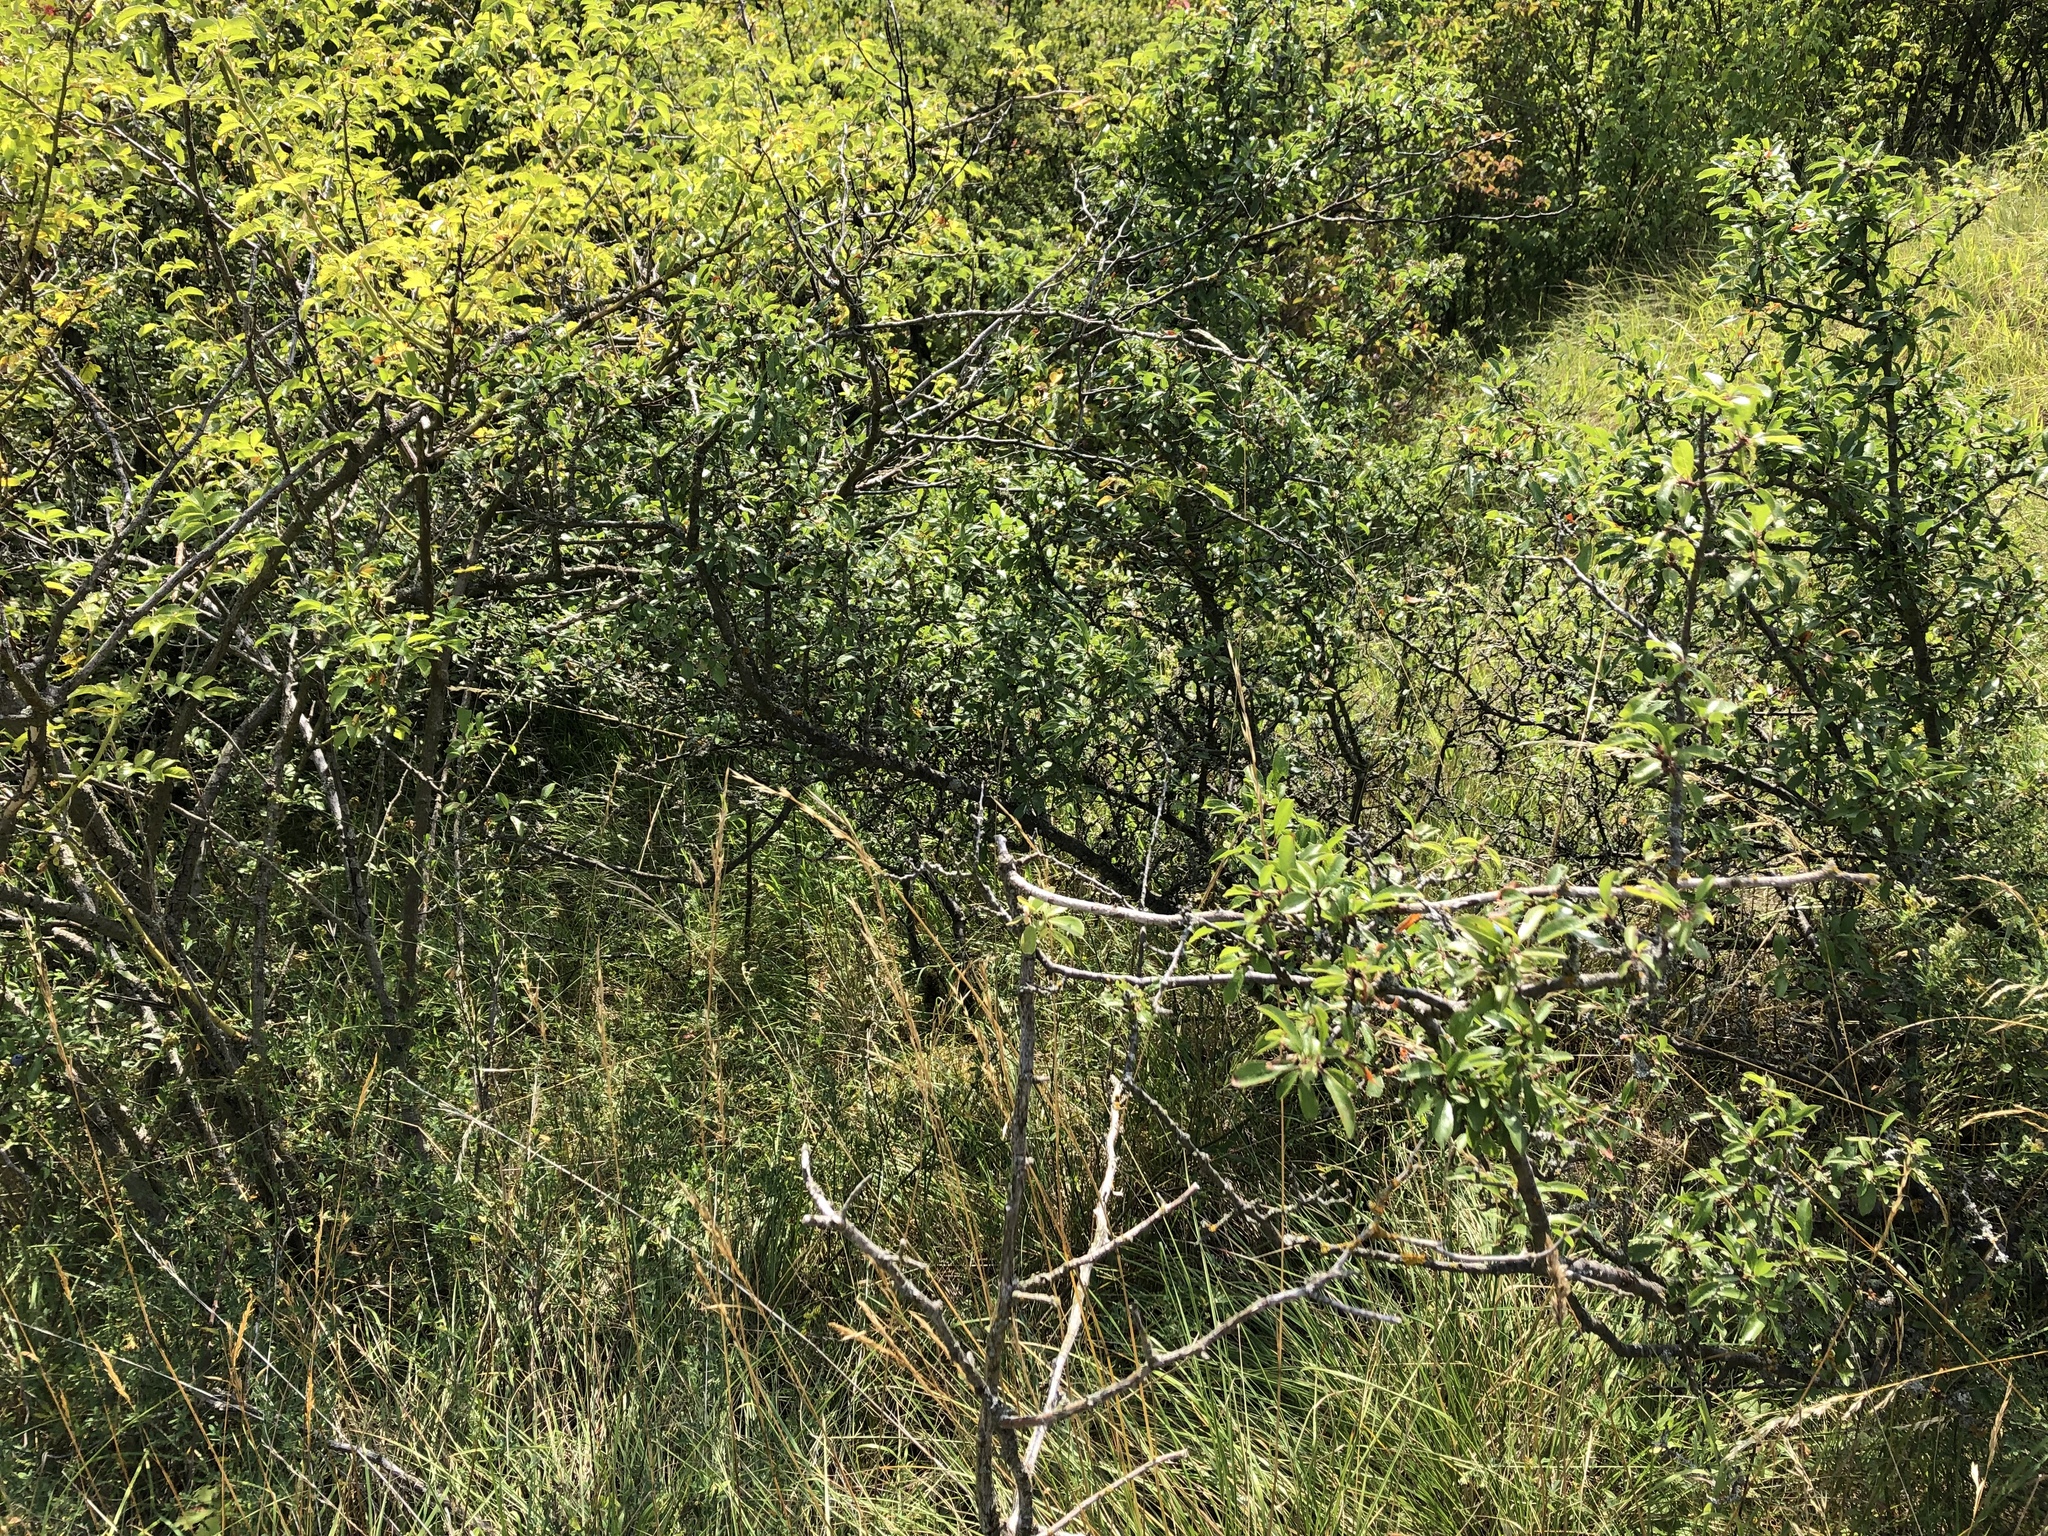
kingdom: Plantae
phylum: Tracheophyta
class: Magnoliopsida
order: Rosales
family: Rosaceae
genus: Prunus
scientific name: Prunus spinosa
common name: Blackthorn
